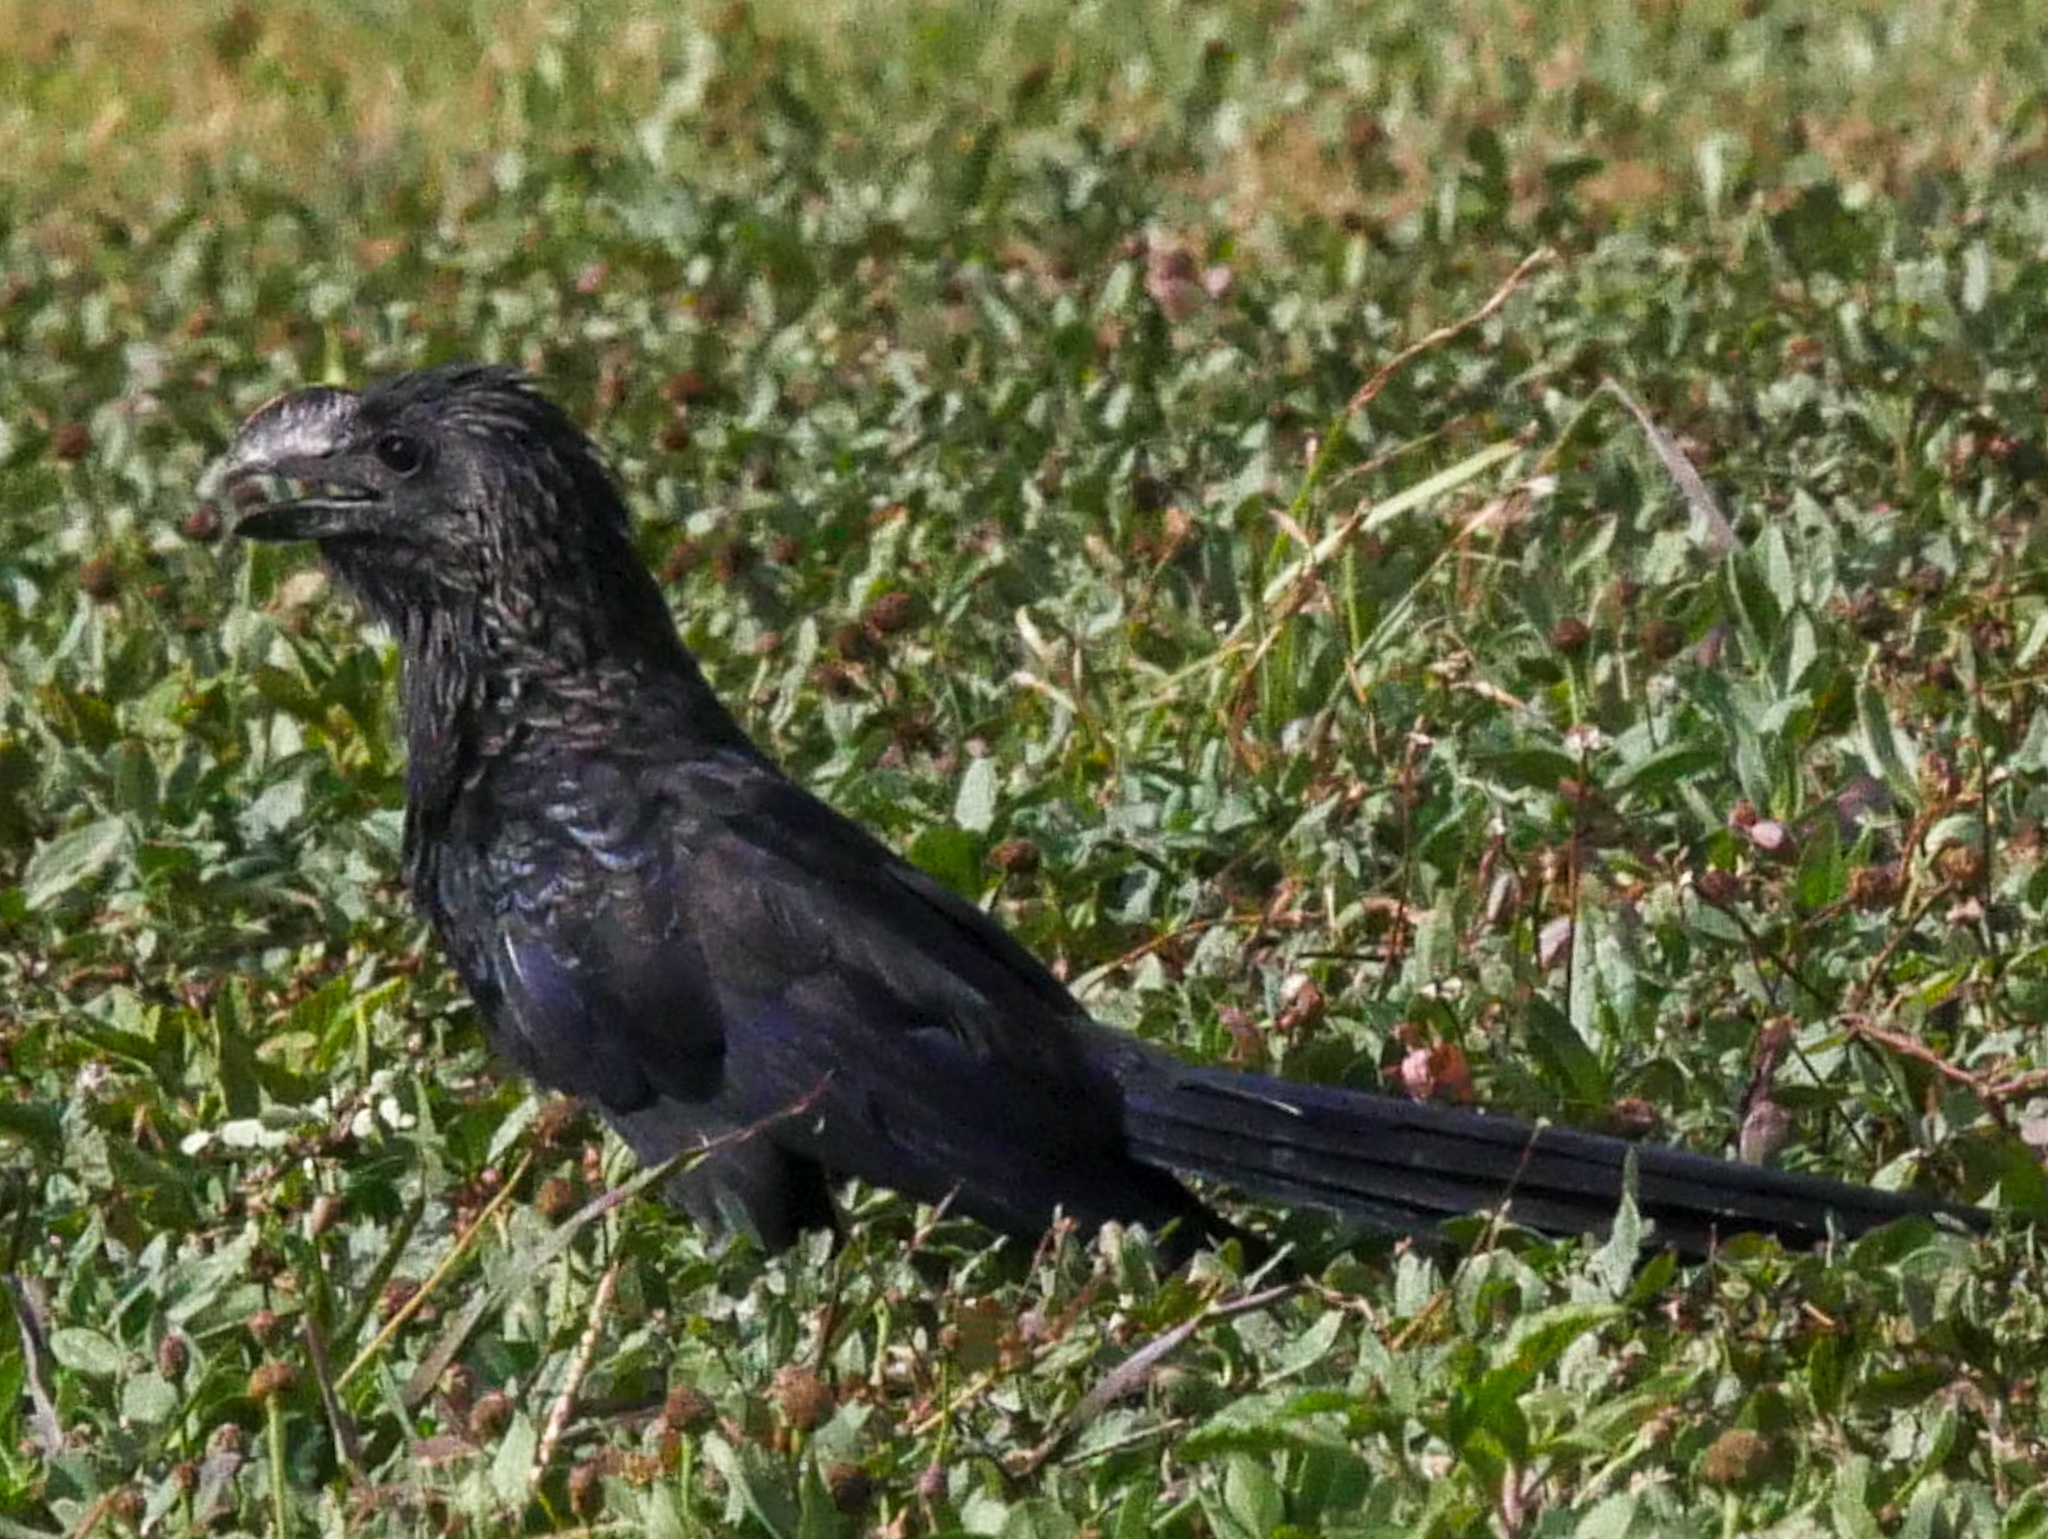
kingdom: Animalia
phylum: Chordata
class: Aves
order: Cuculiformes
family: Cuculidae
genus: Crotophaga
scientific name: Crotophaga ani
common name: Smooth-billed ani
